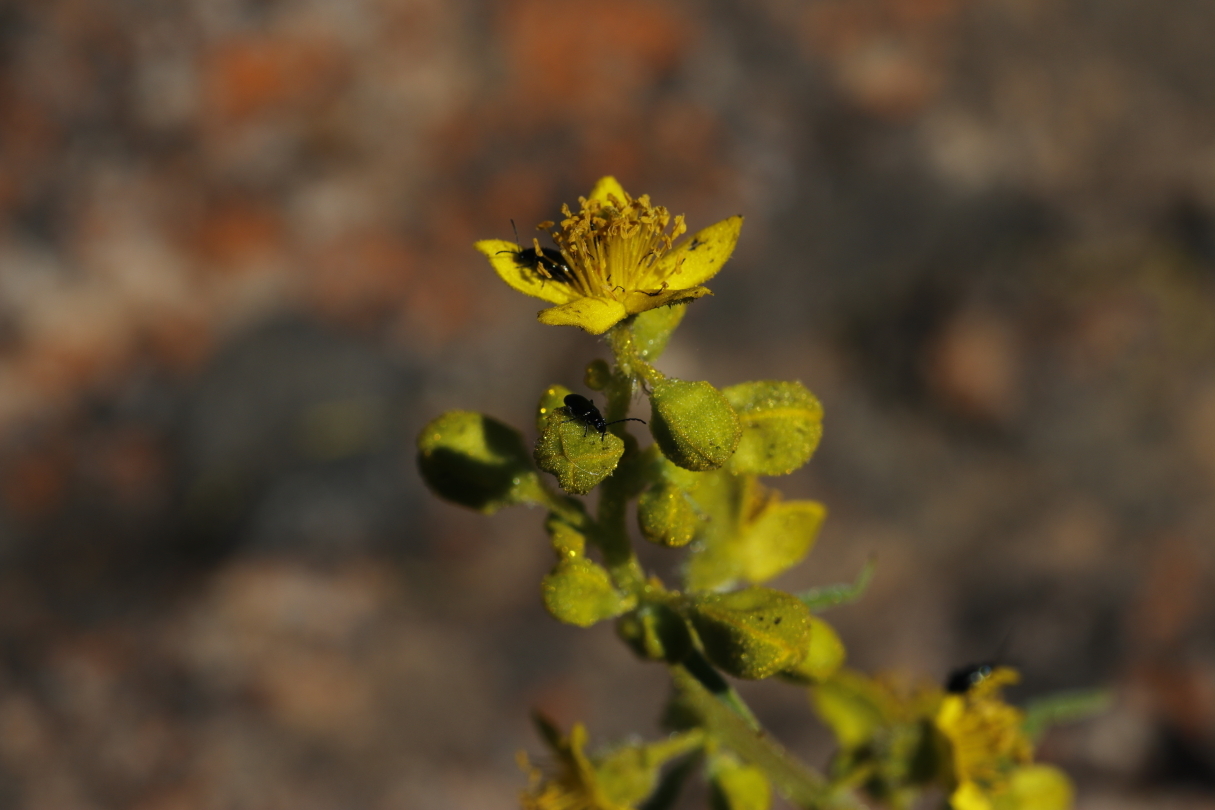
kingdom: Plantae
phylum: Tracheophyta
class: Magnoliopsida
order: Caryophyllales
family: Aizoaceae
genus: Tetragonia
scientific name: Tetragonia fruticosa
